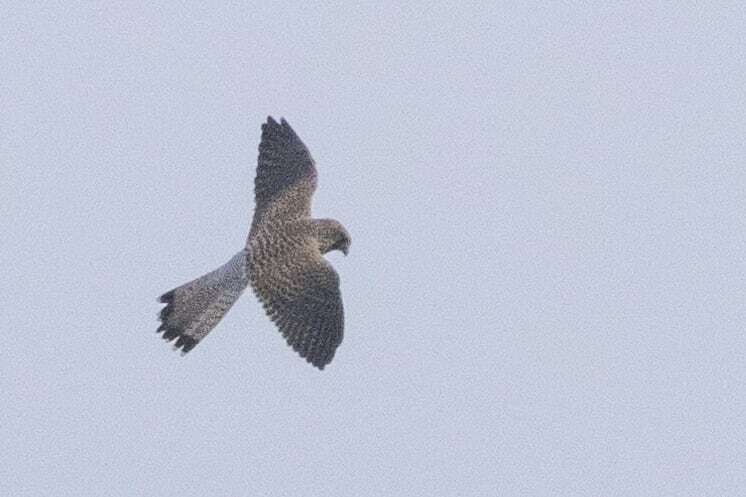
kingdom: Animalia
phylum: Chordata
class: Aves
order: Falconiformes
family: Falconidae
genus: Falco
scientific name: Falco tinnunculus
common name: Common kestrel
